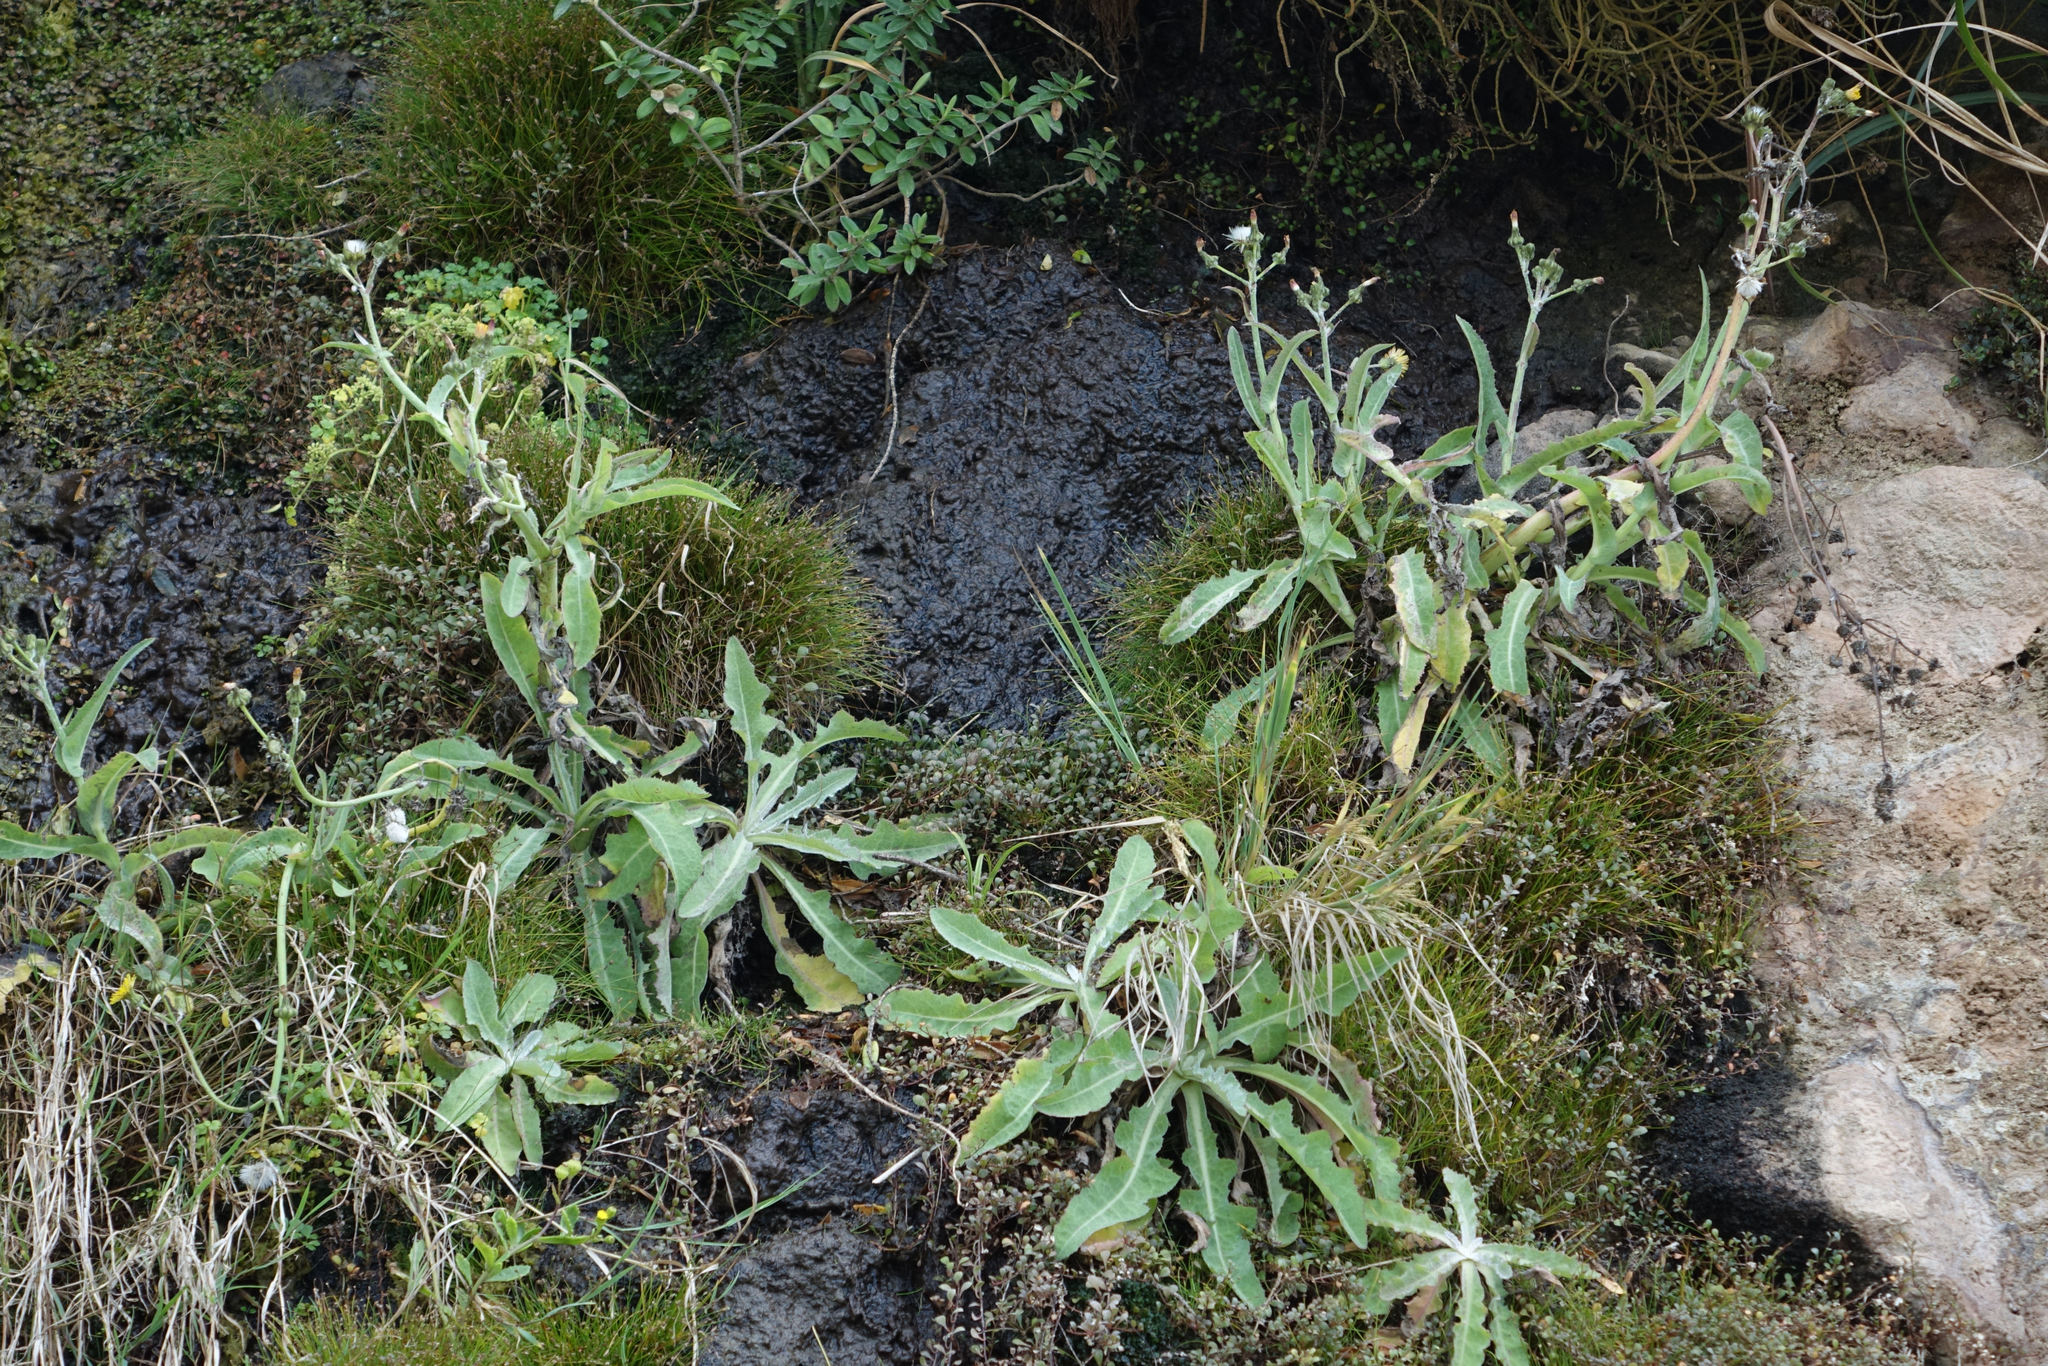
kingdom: Plantae
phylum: Tracheophyta
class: Magnoliopsida
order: Asterales
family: Asteraceae
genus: Sonchus
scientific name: Sonchus kirkii
